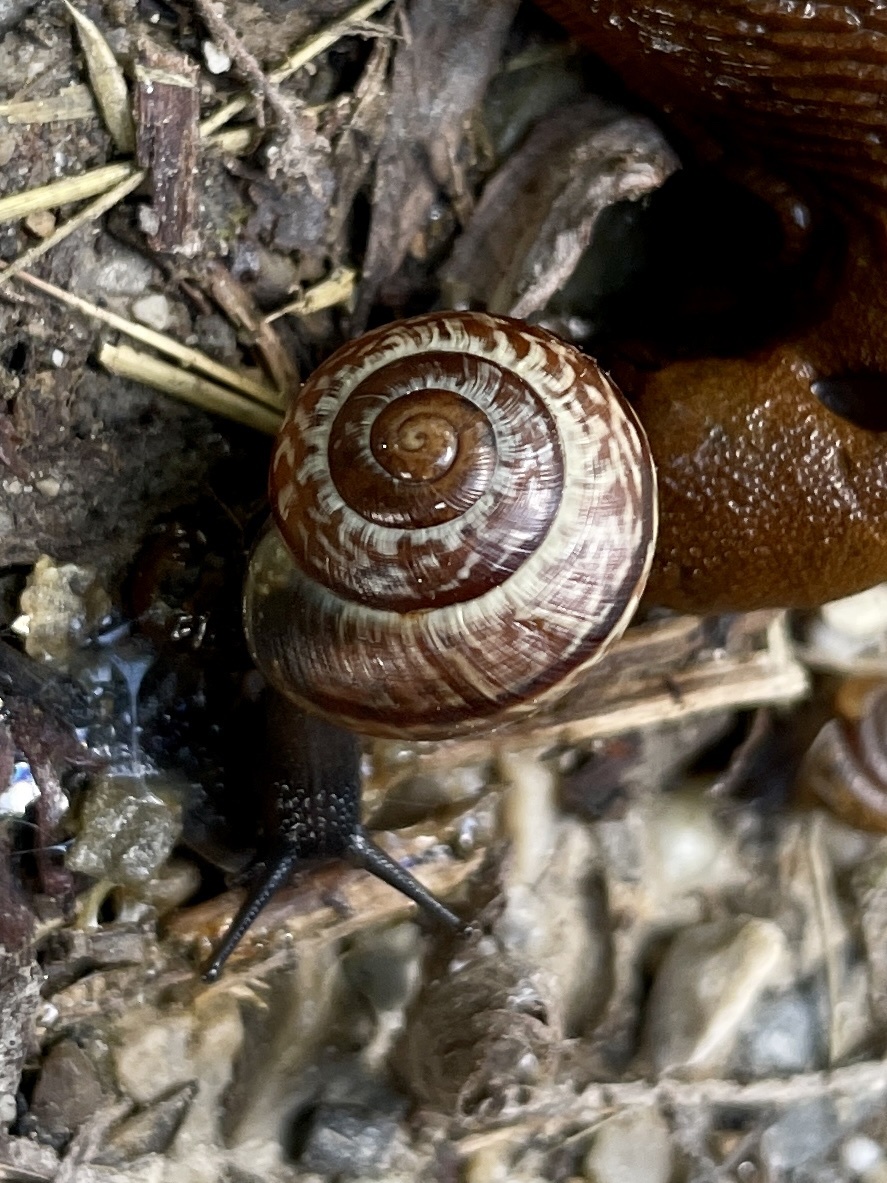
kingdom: Animalia
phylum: Mollusca
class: Gastropoda
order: Stylommatophora
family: Helicidae
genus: Arianta
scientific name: Arianta arbustorum
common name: Copse snail
